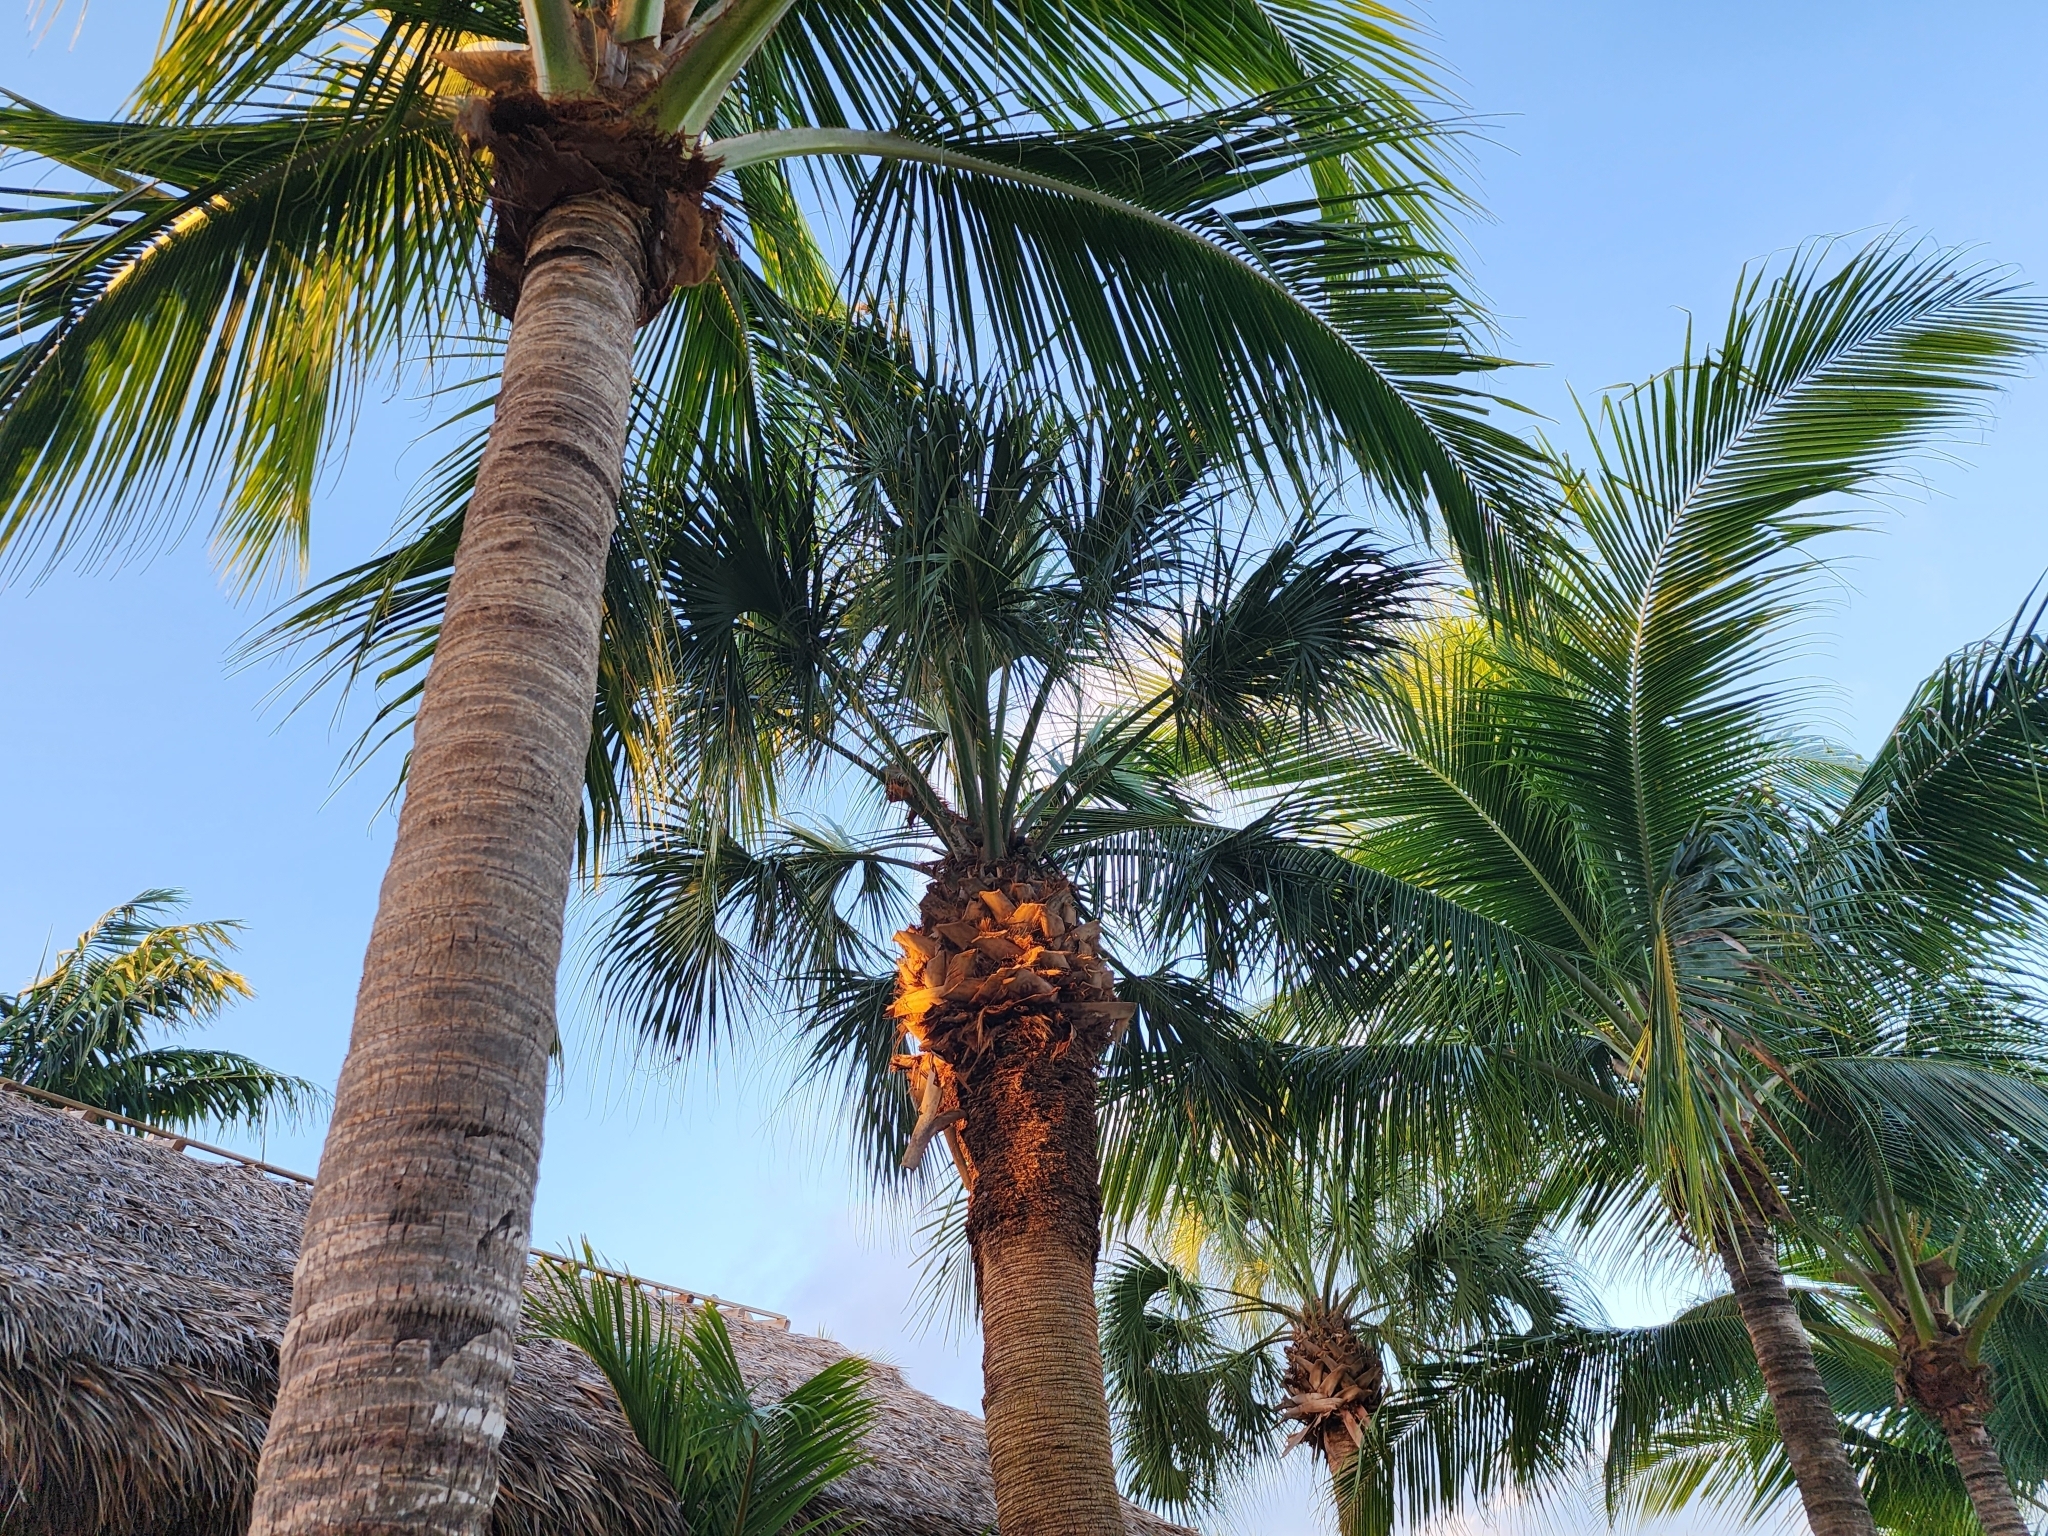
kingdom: Animalia
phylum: Chordata
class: Squamata
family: Iguanidae
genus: Iguana
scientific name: Iguana iguana
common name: Green iguana
